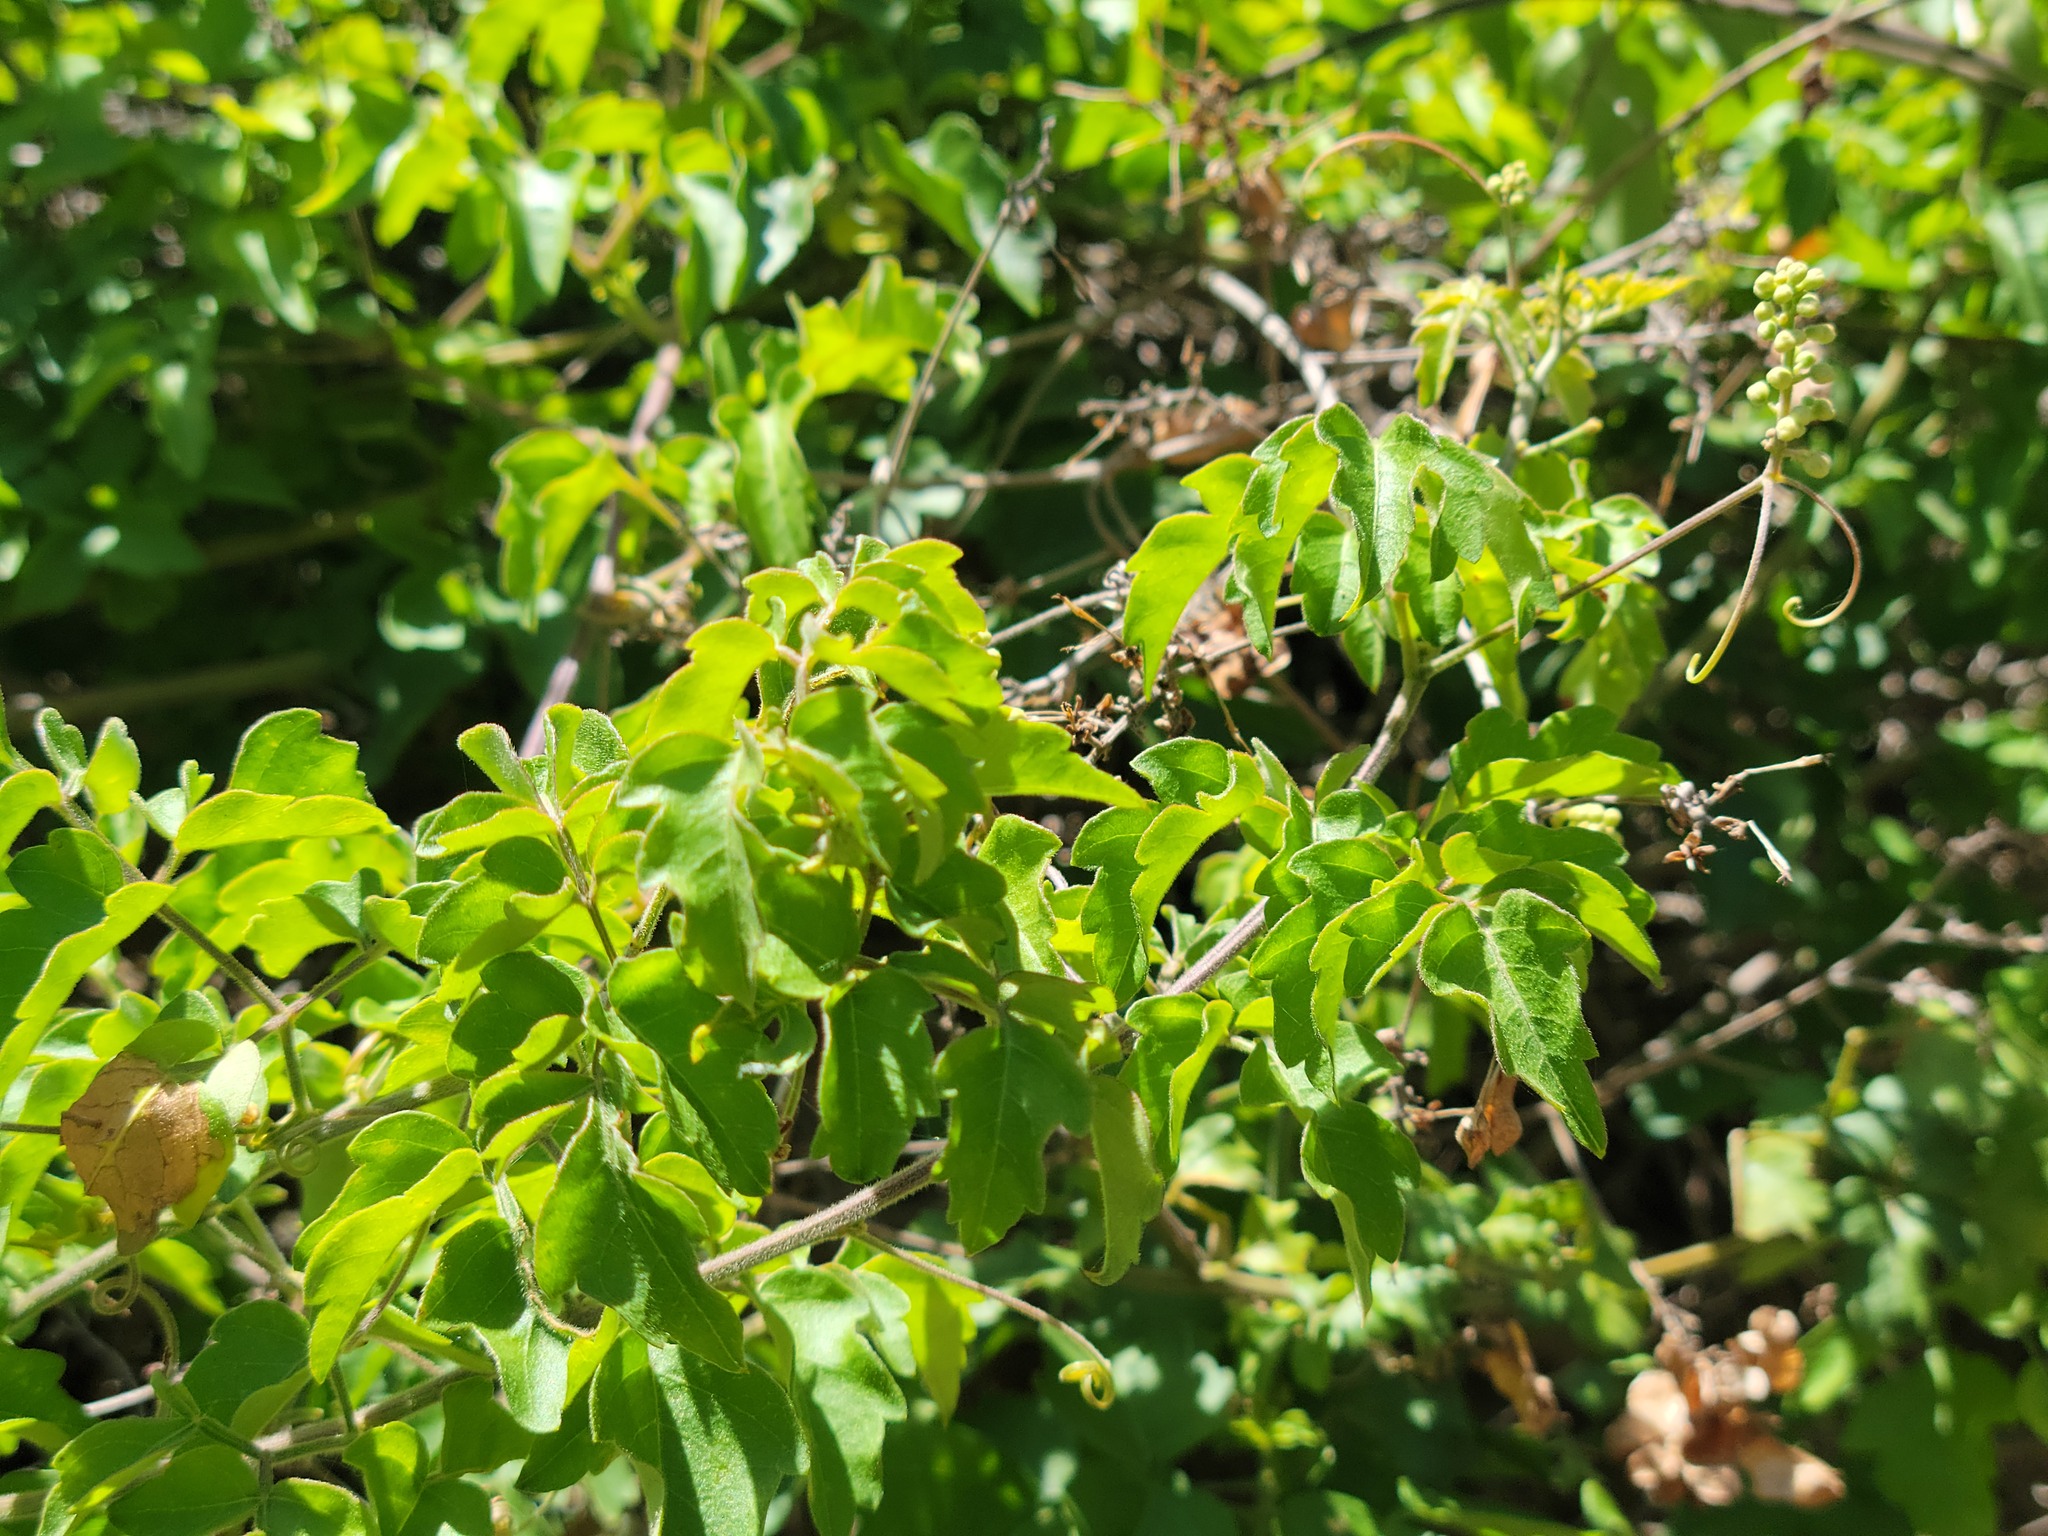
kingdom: Plantae
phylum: Tracheophyta
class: Magnoliopsida
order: Sapindales
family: Sapindaceae
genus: Serjania
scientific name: Serjania brachycarpa
